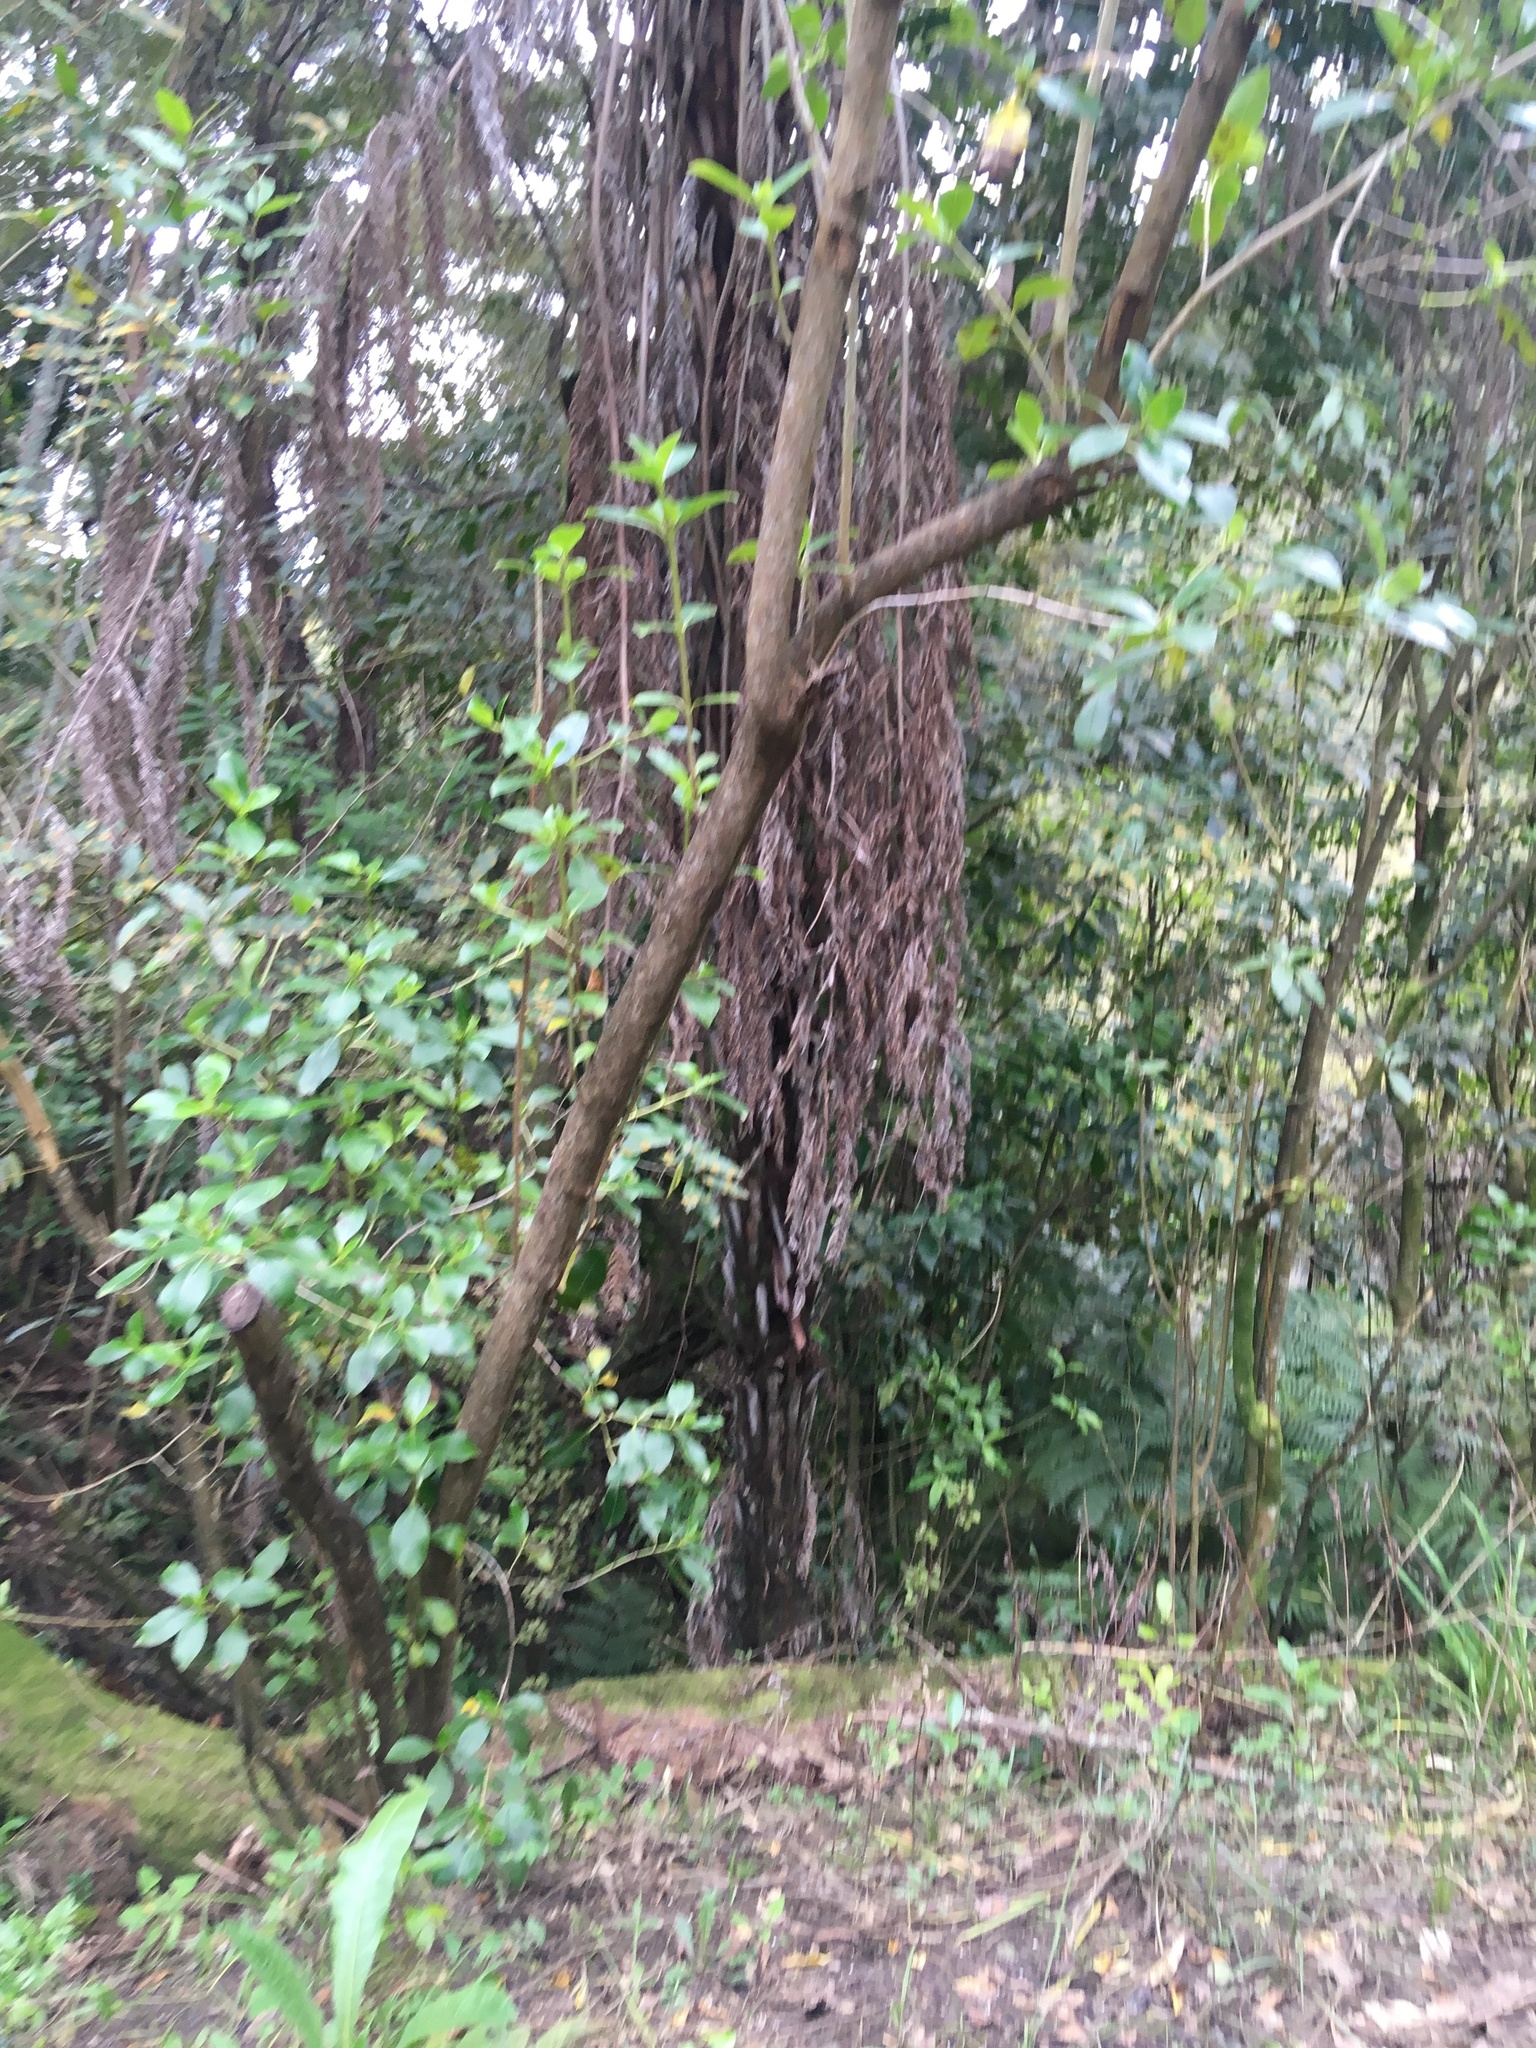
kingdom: Plantae
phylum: Tracheophyta
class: Polypodiopsida
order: Cyatheales
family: Cyatheaceae
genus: Alsophila
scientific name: Alsophila dealbata
